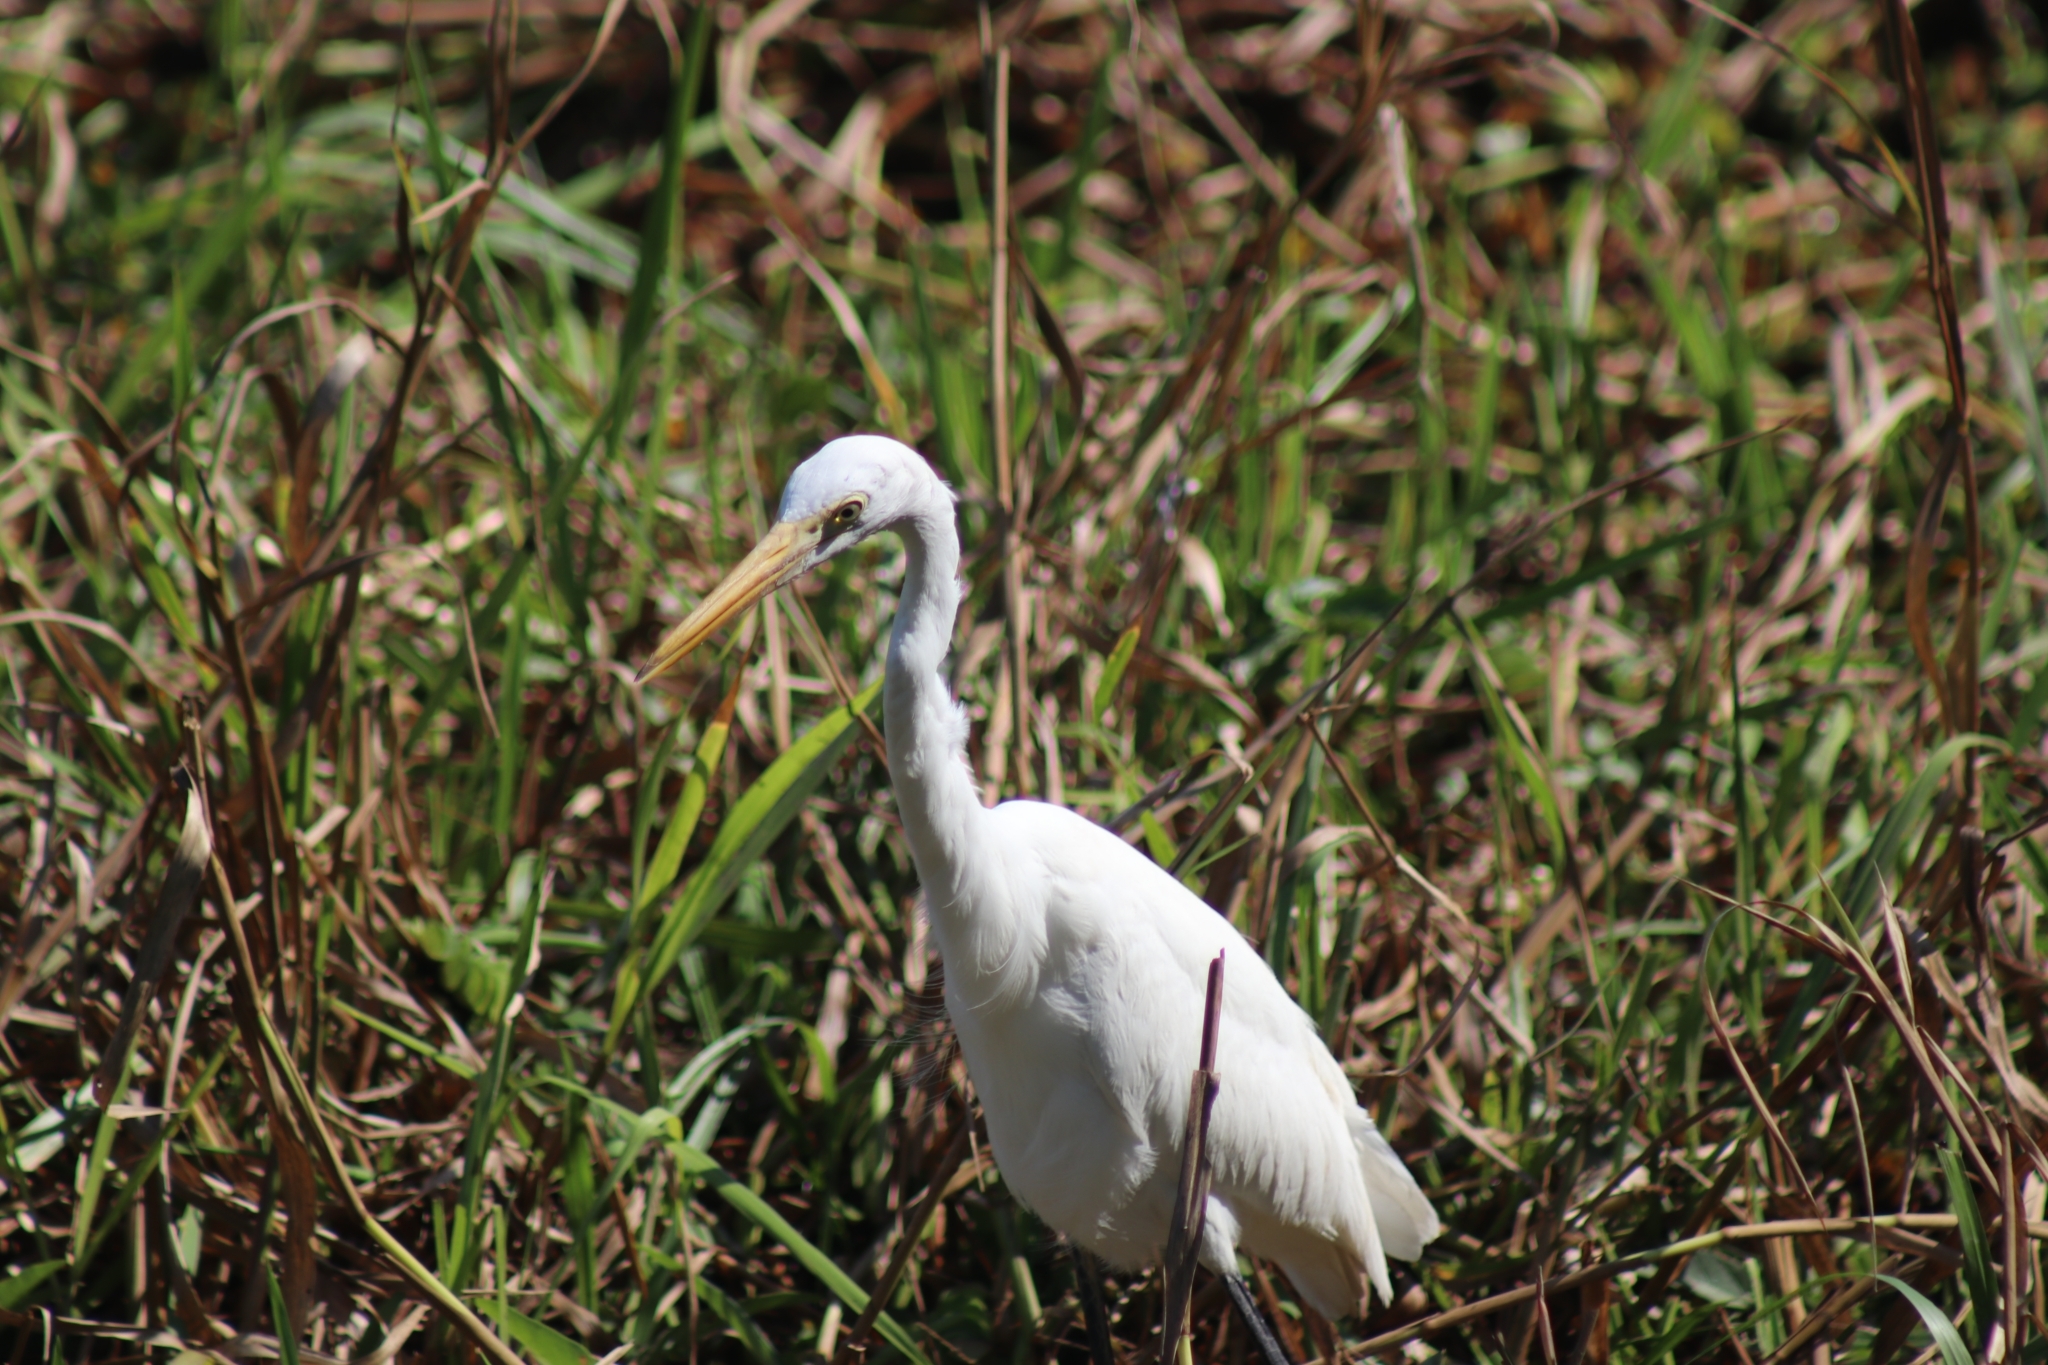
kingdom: Animalia
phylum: Chordata
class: Aves
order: Pelecaniformes
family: Ardeidae
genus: Egretta
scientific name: Egretta intermedia
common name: Intermediate egret
